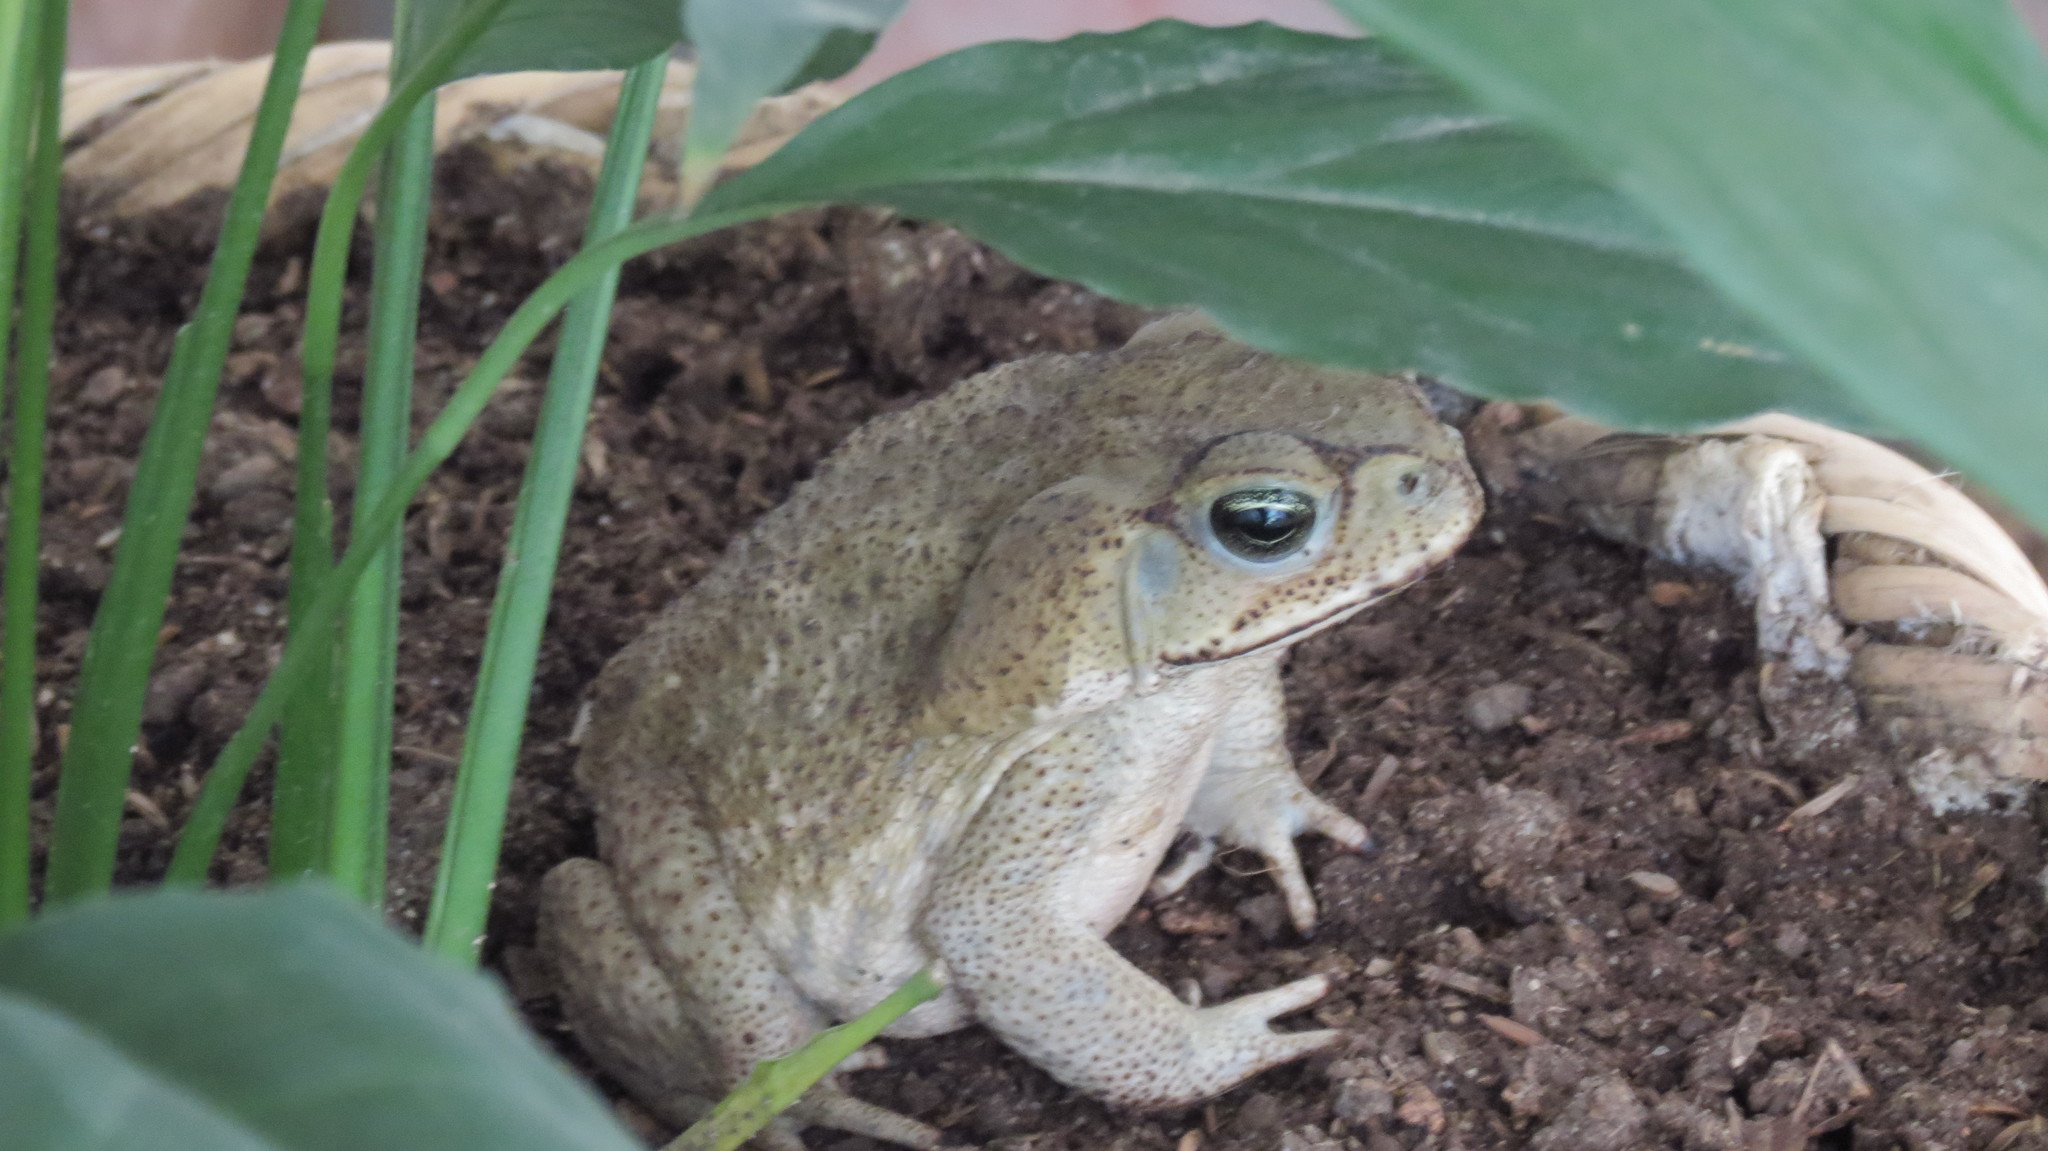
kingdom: Animalia
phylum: Chordata
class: Amphibia
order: Anura
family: Bufonidae
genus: Rhinella
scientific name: Rhinella horribilis
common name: Mesoamerican cane toad
